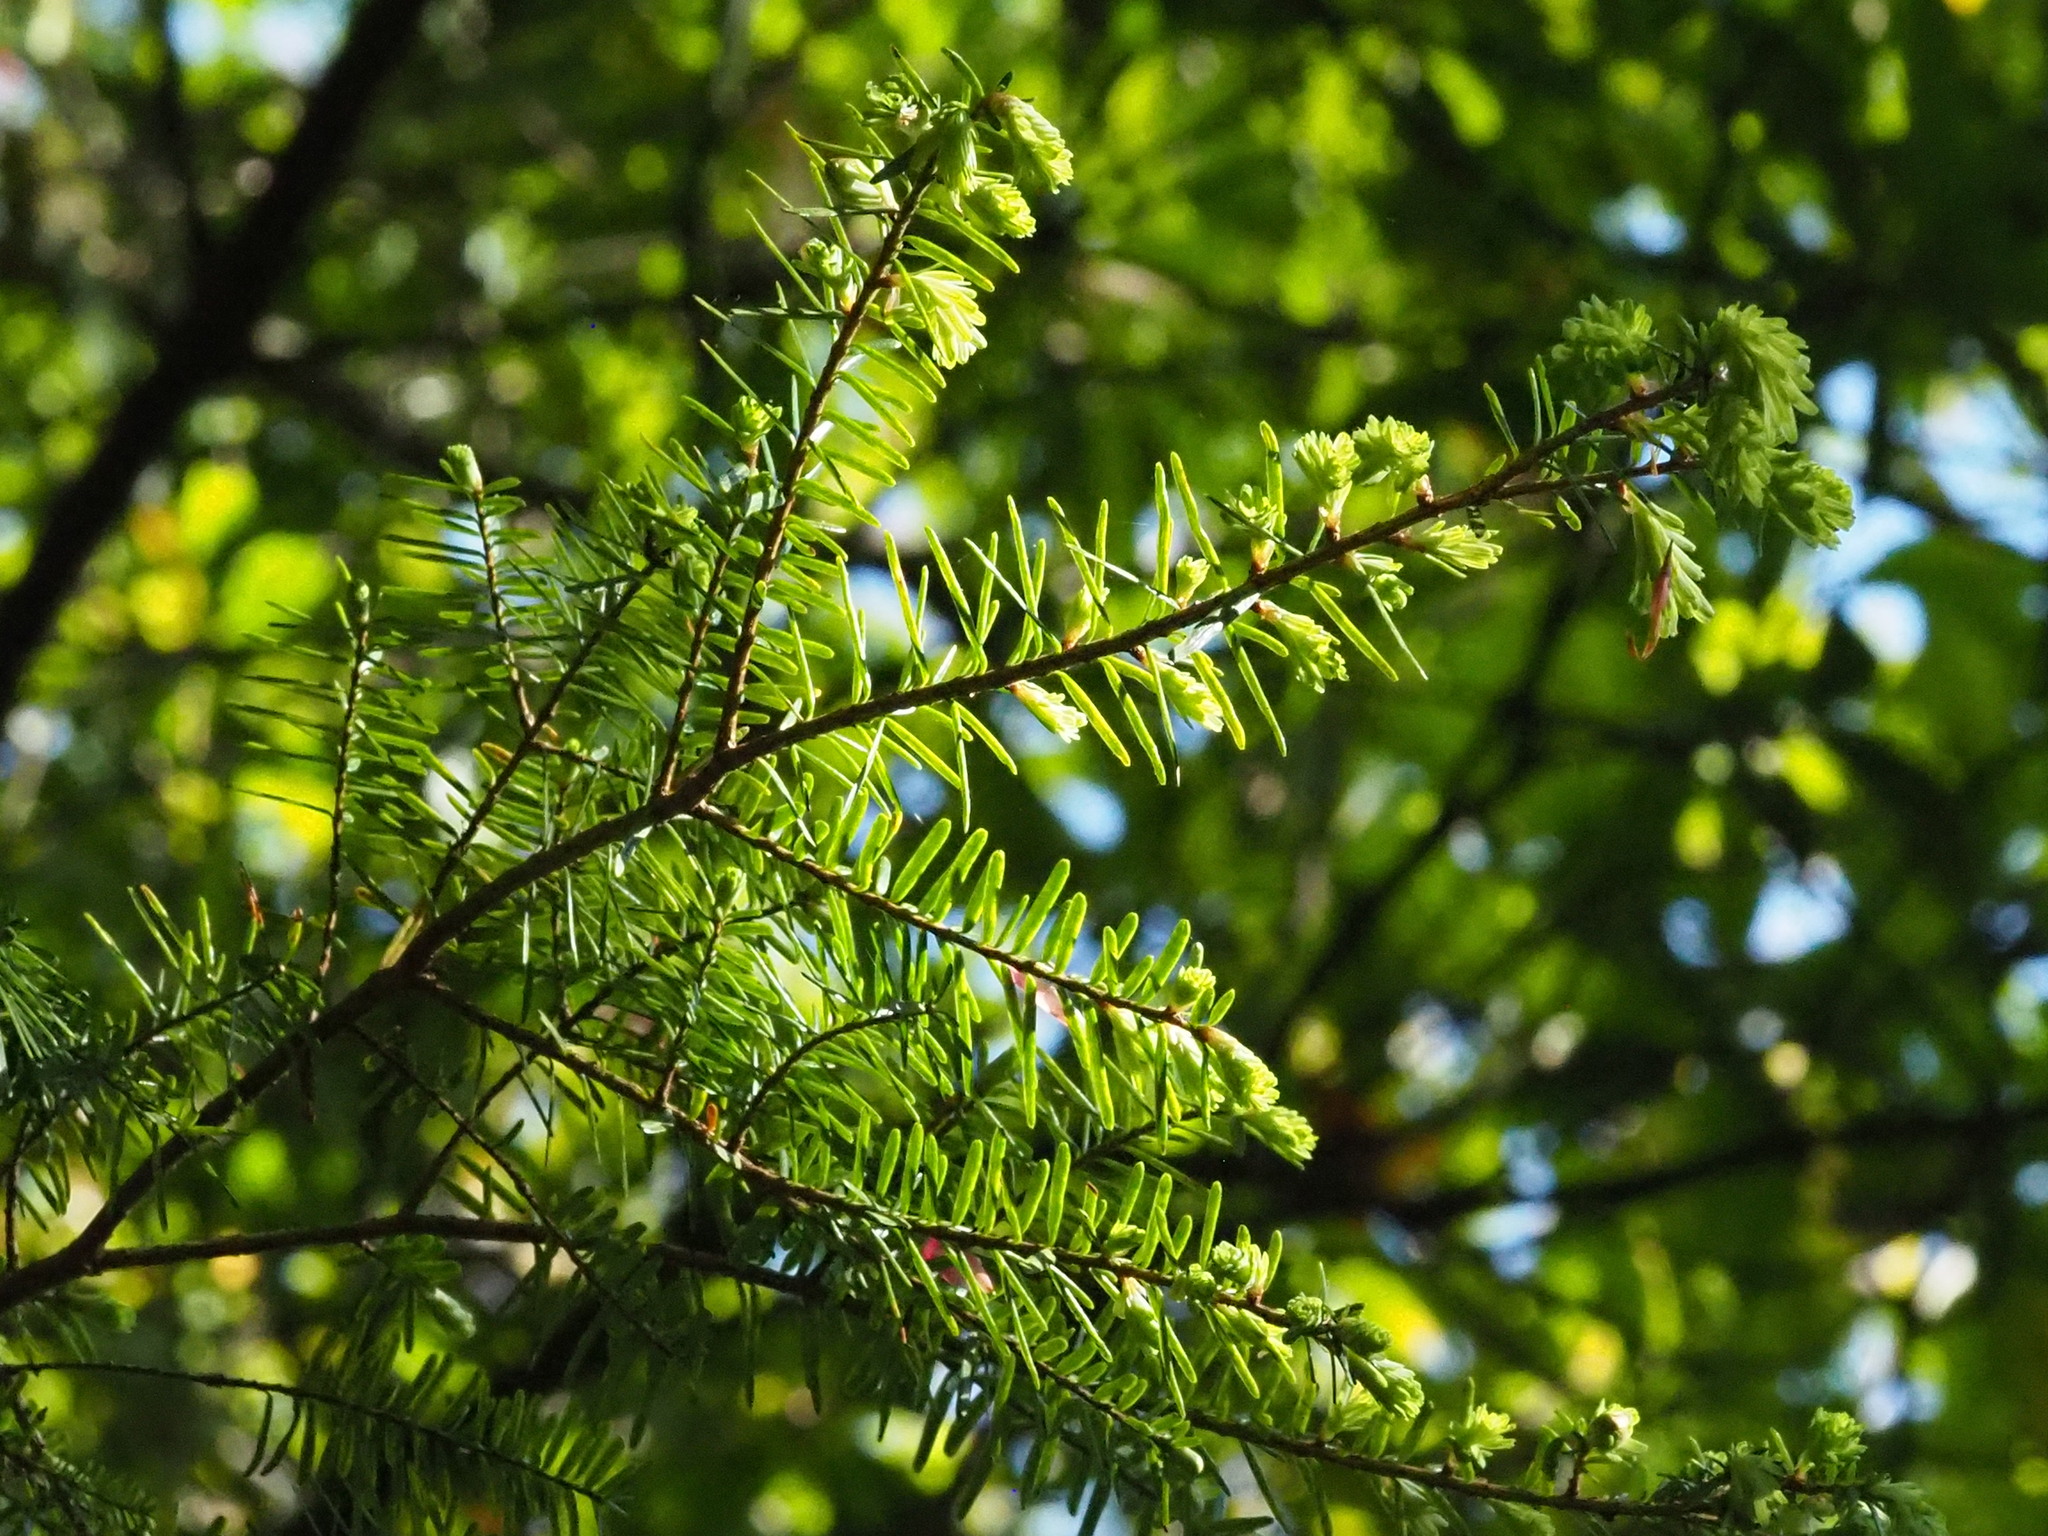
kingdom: Plantae
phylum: Tracheophyta
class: Pinopsida
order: Pinales
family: Pinaceae
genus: Tsuga
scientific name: Tsuga chinensis
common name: Chinese hemlock
